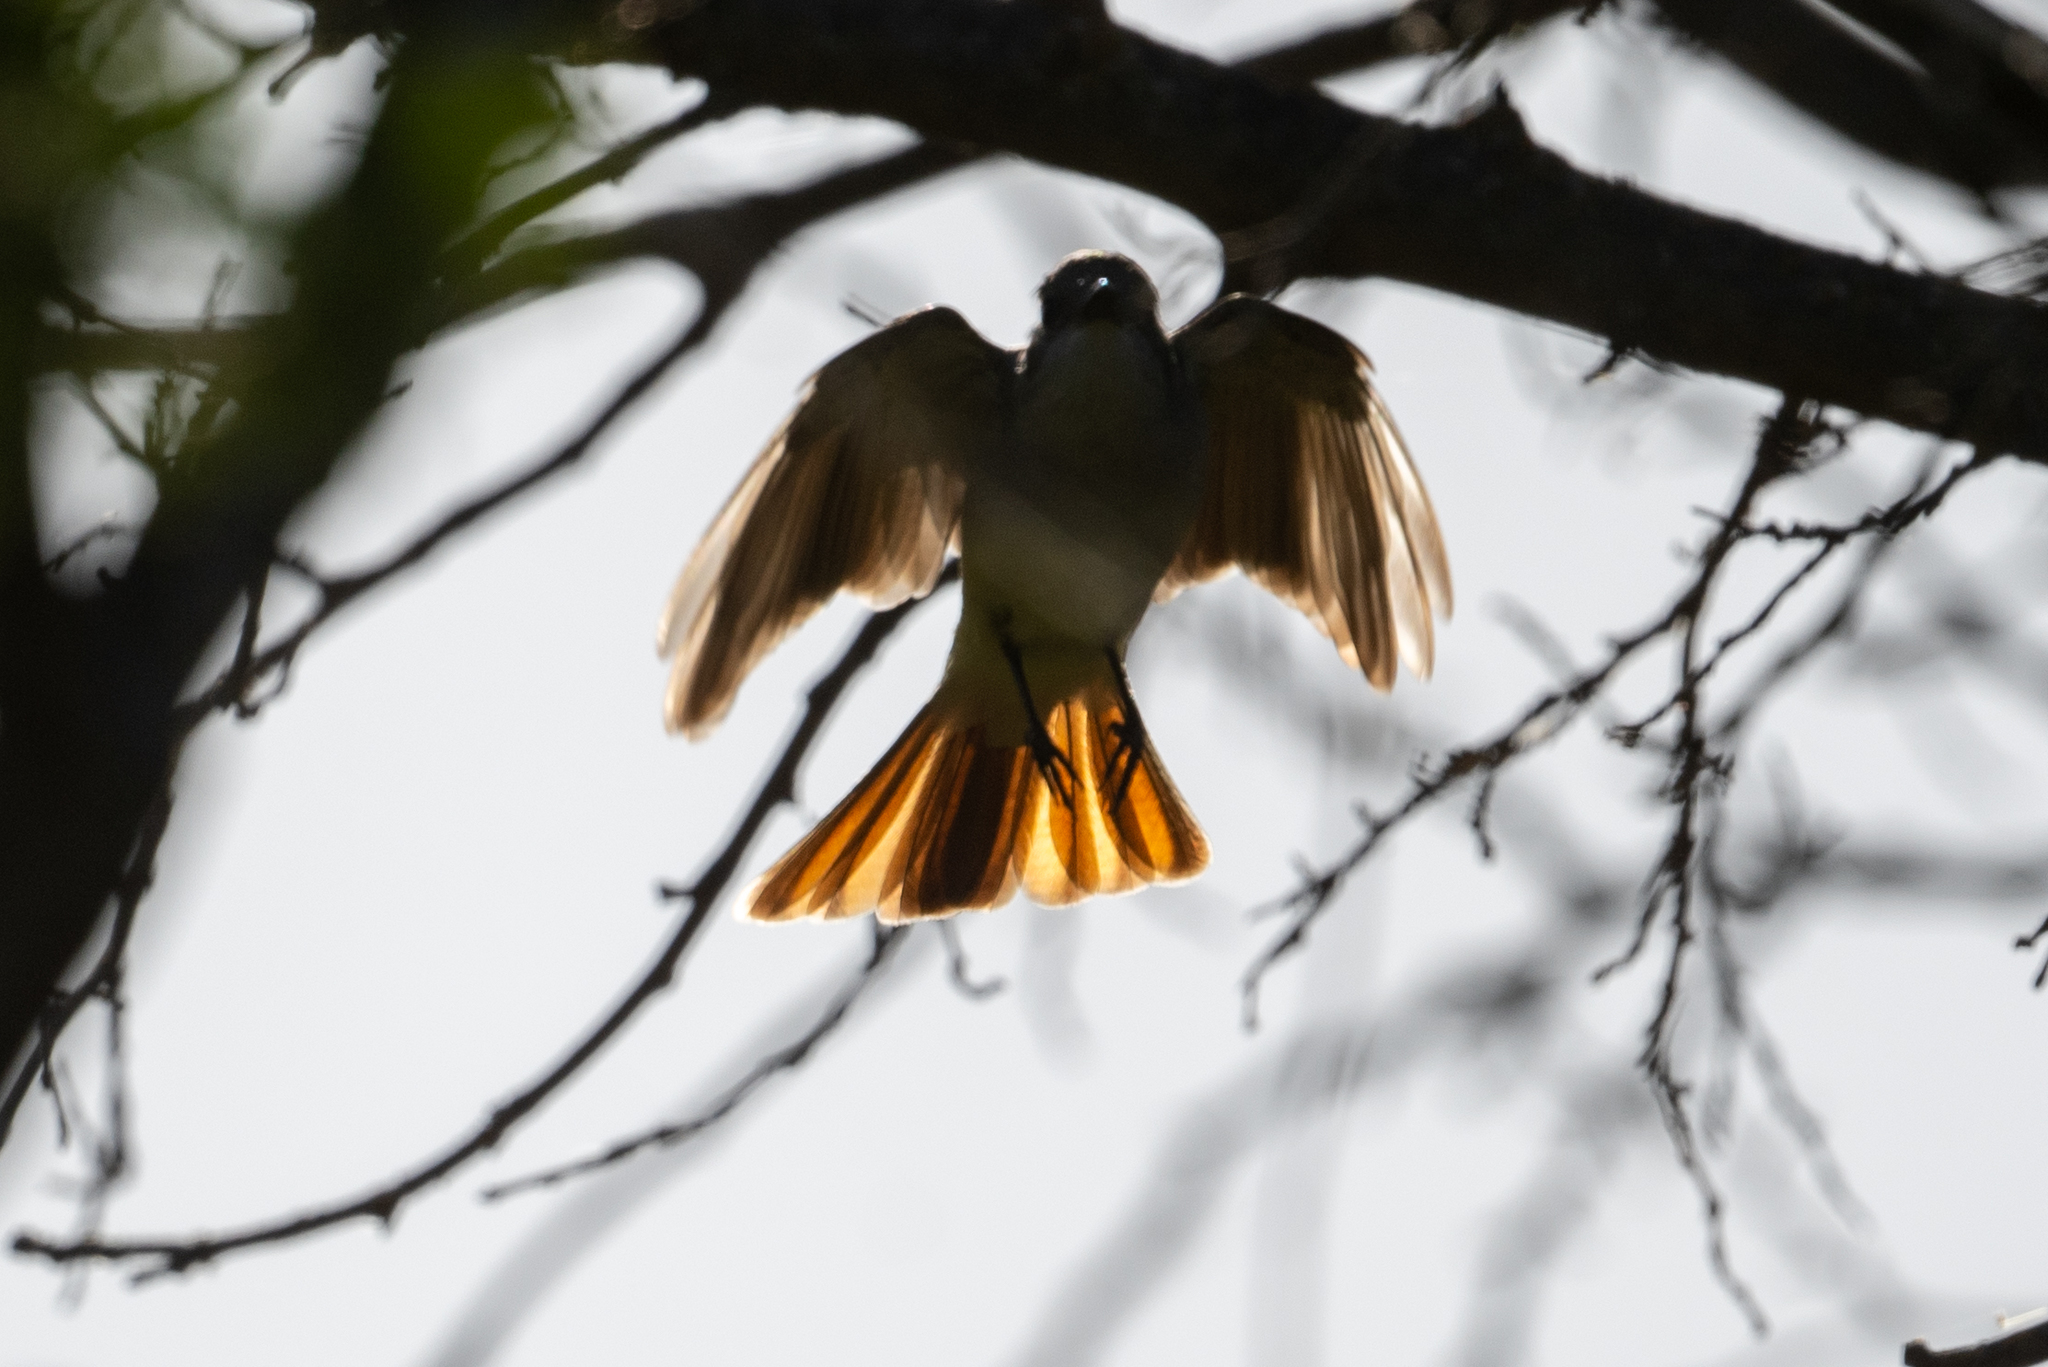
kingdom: Animalia
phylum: Chordata
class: Aves
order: Passeriformes
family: Tyrannidae
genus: Myiarchus
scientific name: Myiarchus cinerascens
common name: Ash-throated flycatcher
